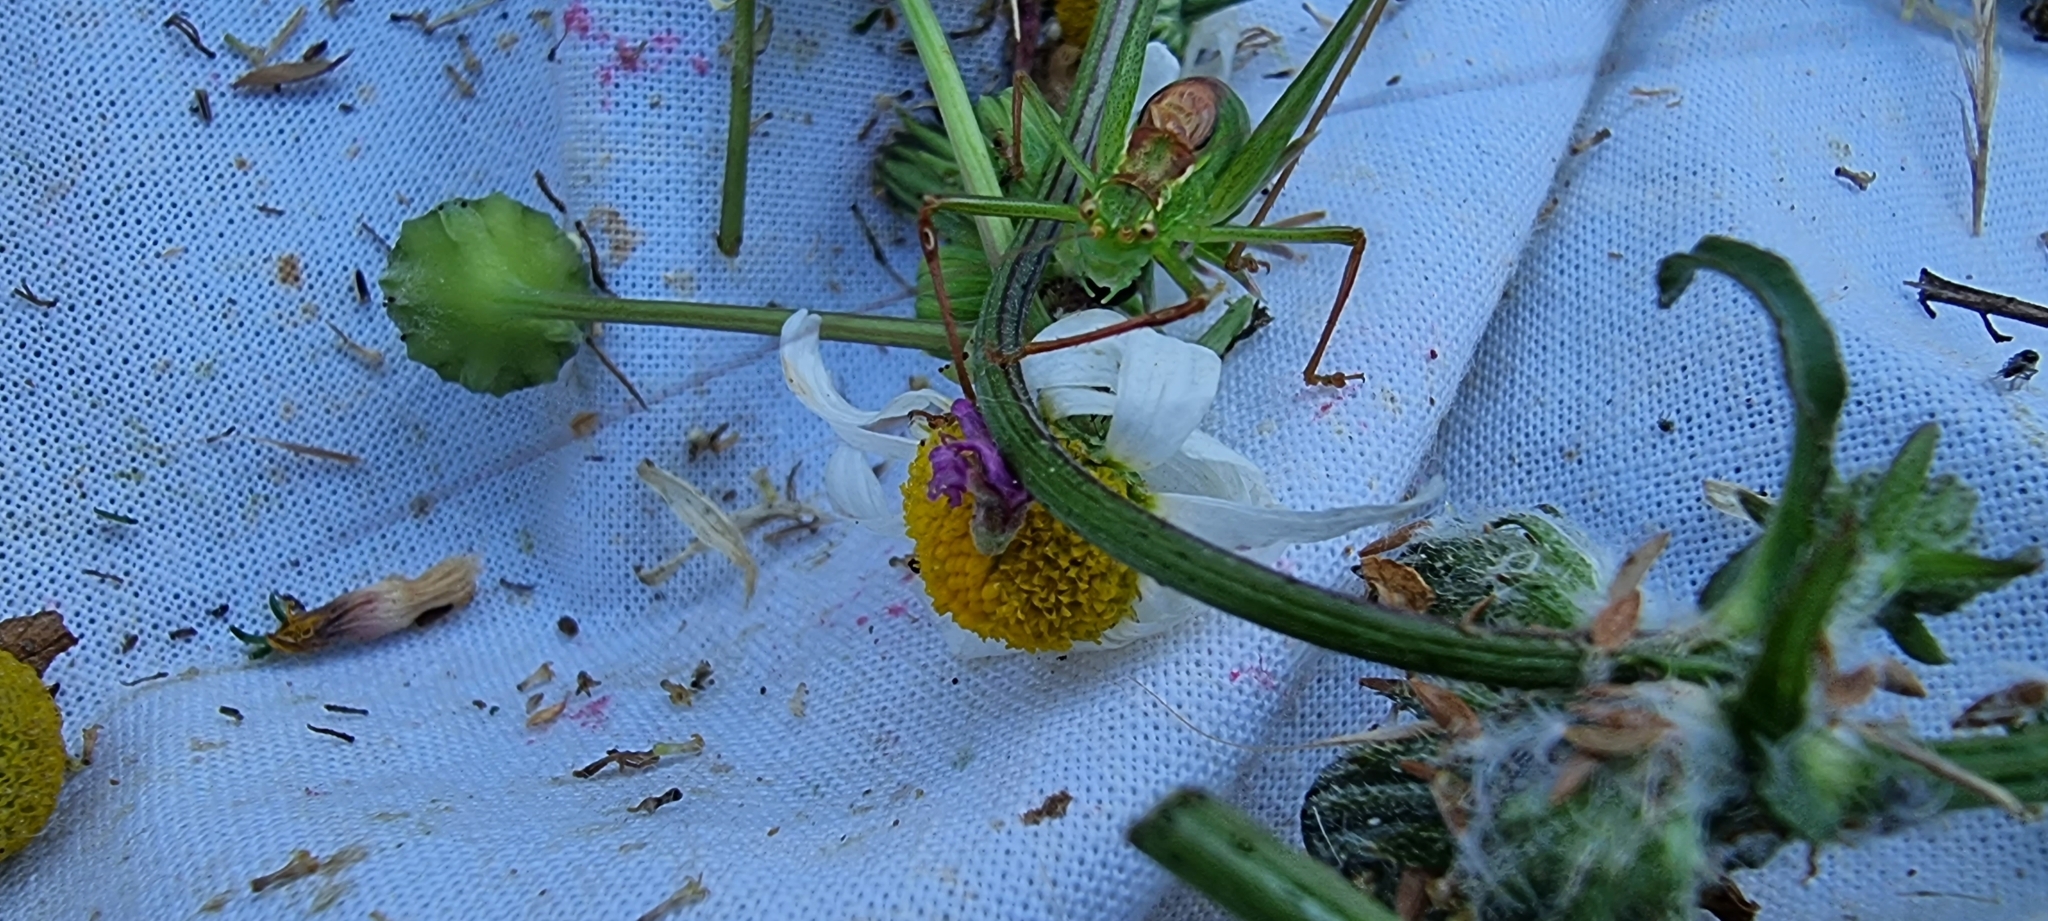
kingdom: Animalia
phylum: Arthropoda
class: Insecta
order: Orthoptera
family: Tettigoniidae
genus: Leptophyes
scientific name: Leptophyes punctatissima
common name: Speckled bush-cricket
